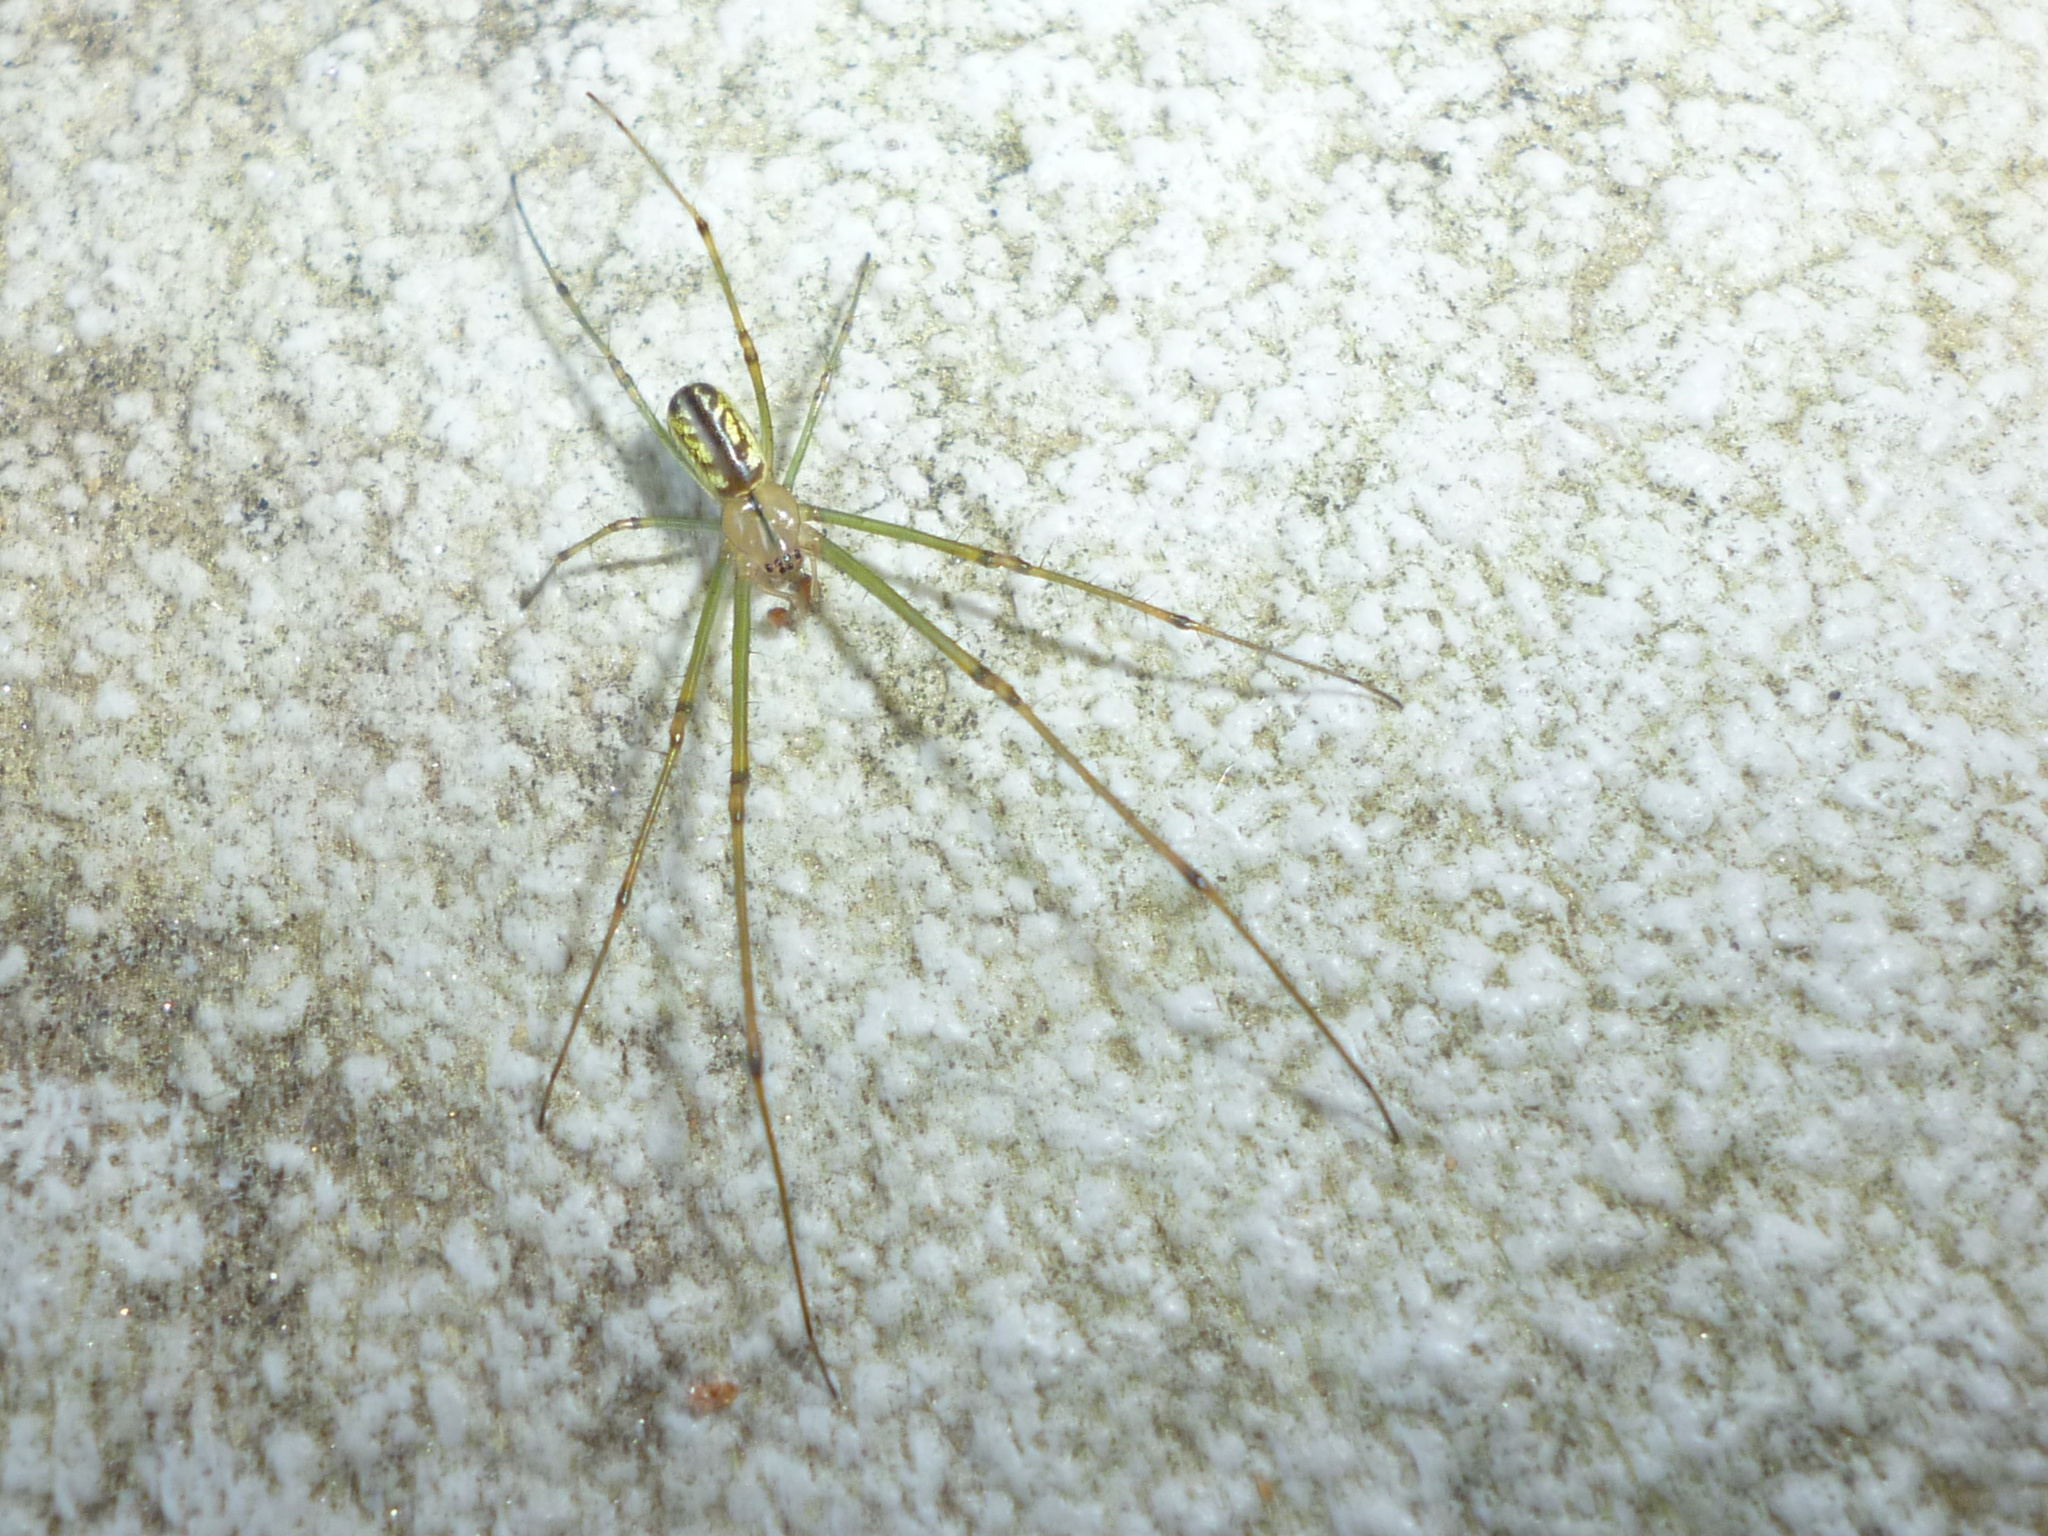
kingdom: Animalia
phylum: Arthropoda
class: Arachnida
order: Araneae
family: Tetragnathidae
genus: Leucauge
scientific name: Leucauge venusta
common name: Longjawed orb weavers
